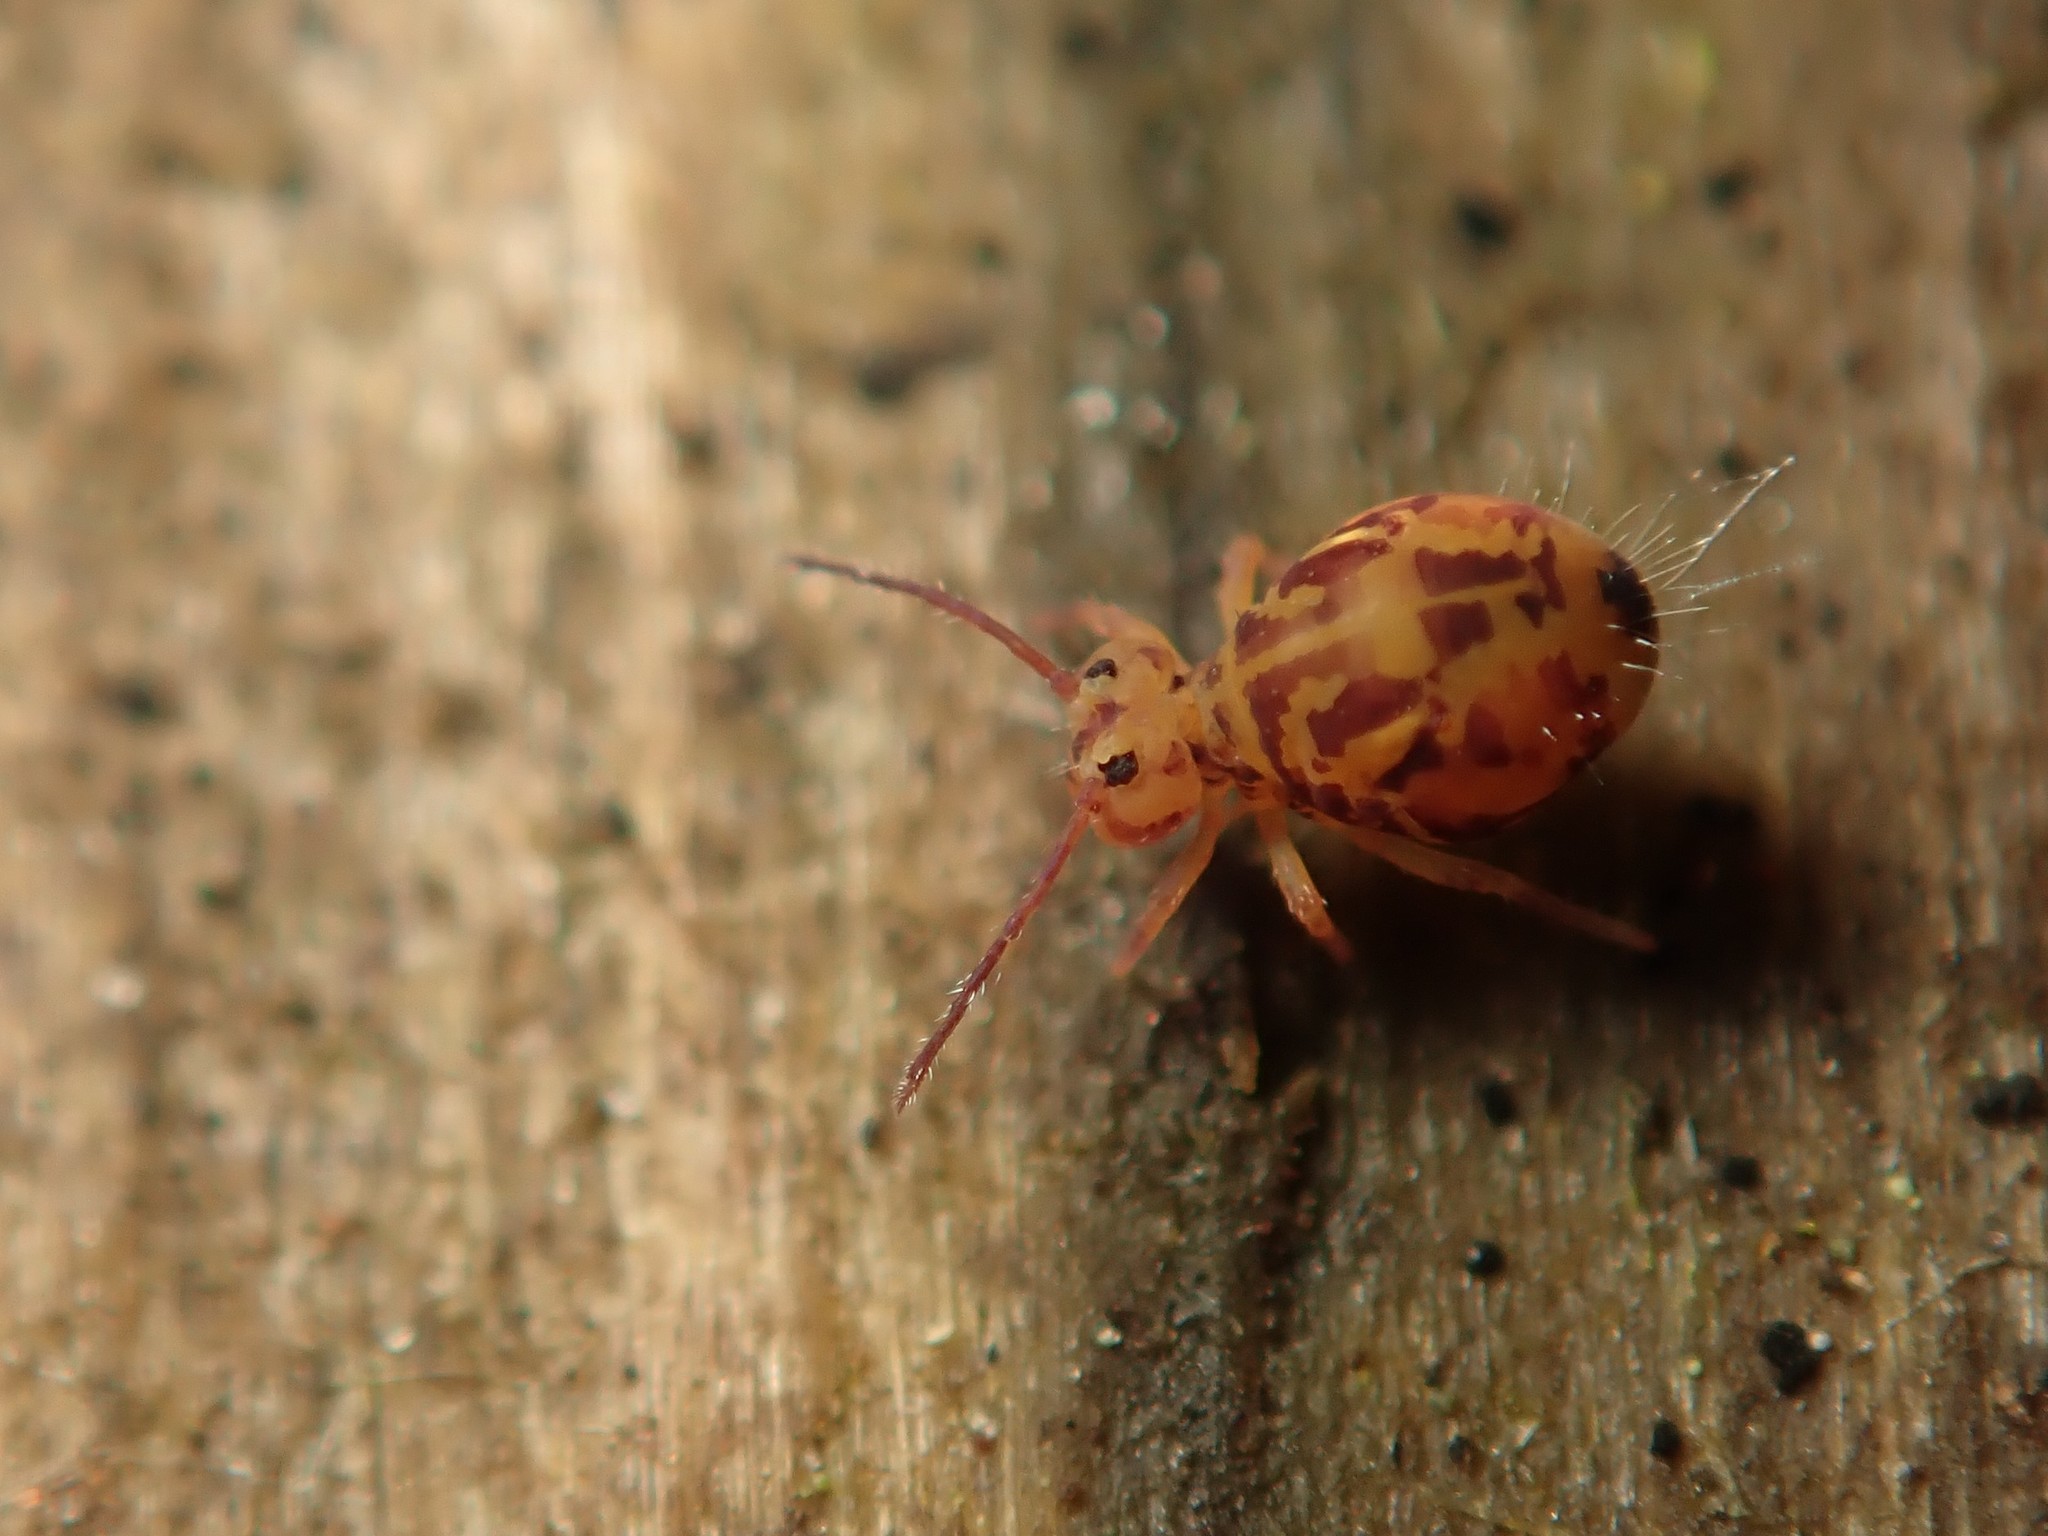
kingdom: Animalia
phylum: Arthropoda
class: Collembola
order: Symphypleona
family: Dicyrtomidae
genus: Dicyrtomina
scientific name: Dicyrtomina ornata
